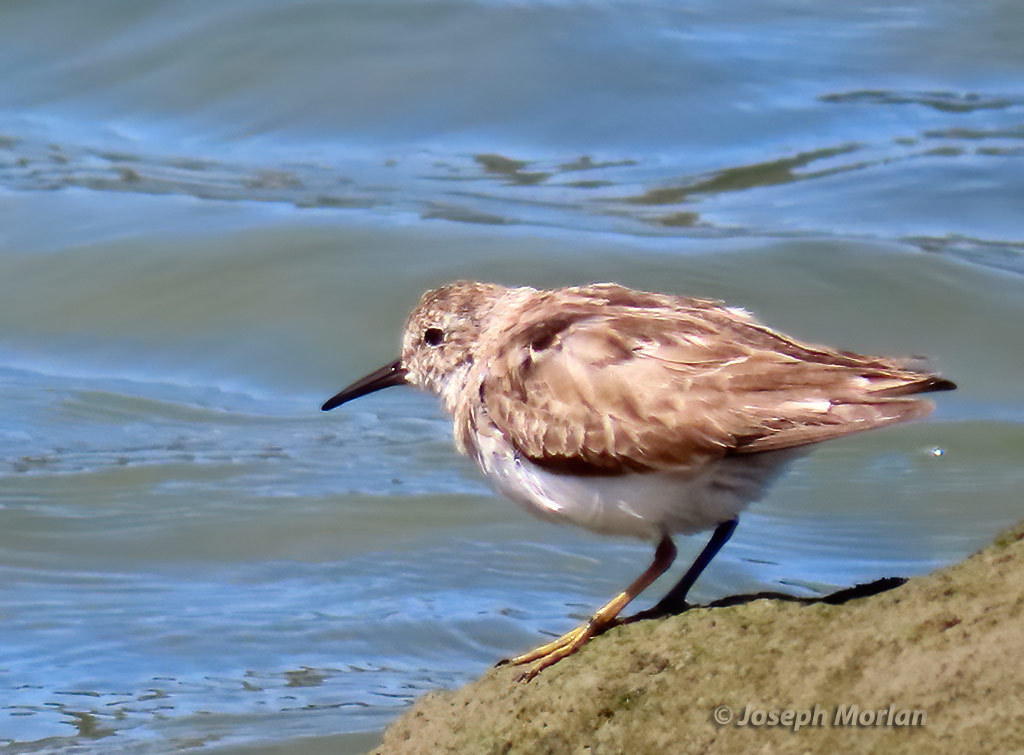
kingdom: Animalia
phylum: Chordata
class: Aves
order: Charadriiformes
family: Scolopacidae
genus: Calidris
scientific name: Calidris minutilla
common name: Least sandpiper
